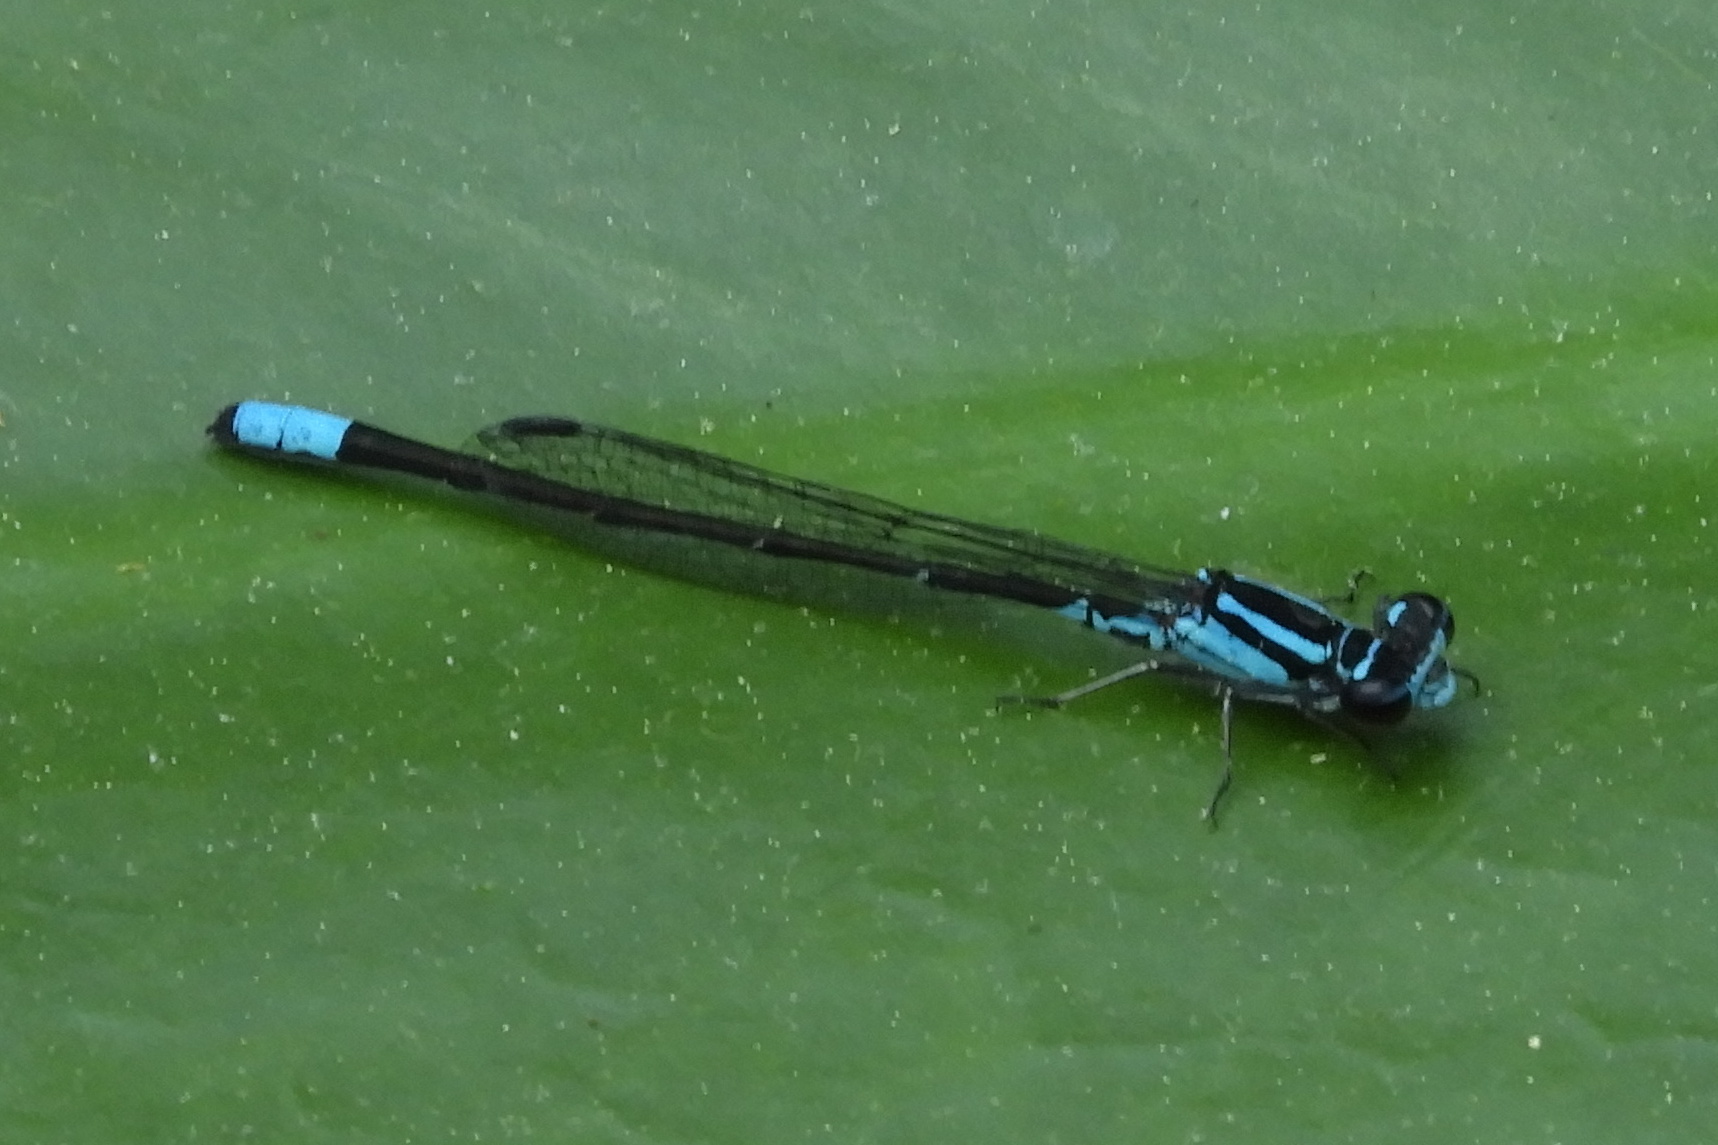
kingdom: Animalia
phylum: Arthropoda
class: Insecta
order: Odonata
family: Coenagrionidae
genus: Enallagma
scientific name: Enallagma geminatum
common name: Skimming bluet
